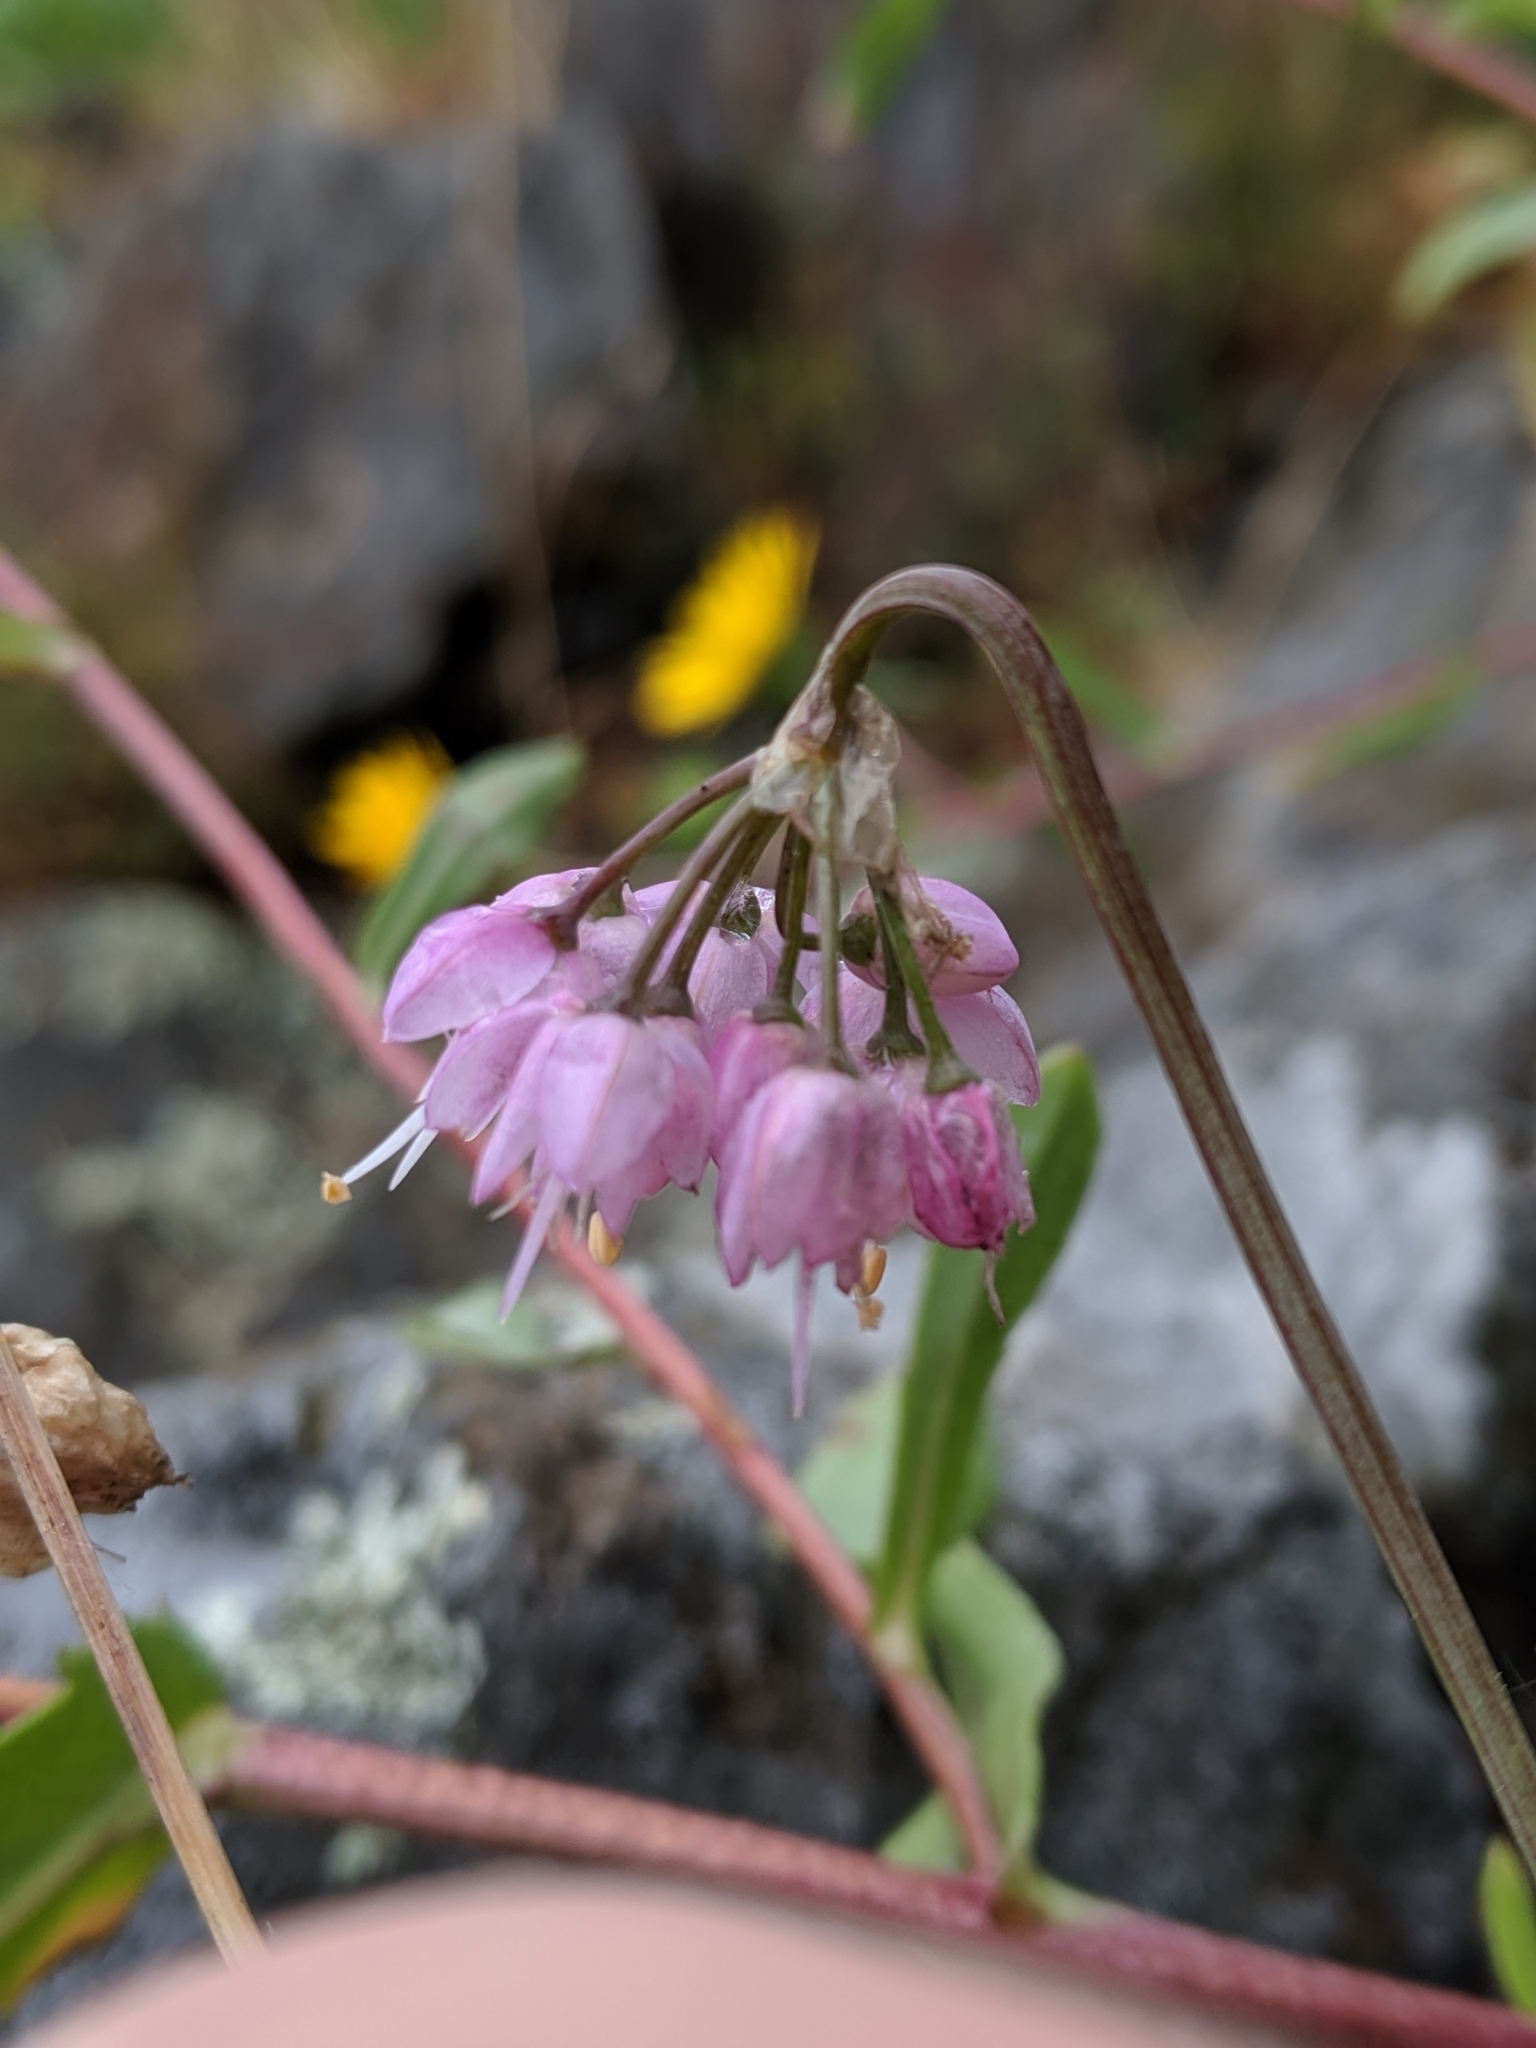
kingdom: Plantae
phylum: Tracheophyta
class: Liliopsida
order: Asparagales
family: Amaryllidaceae
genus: Allium
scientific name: Allium cernuum
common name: Nodding onion
